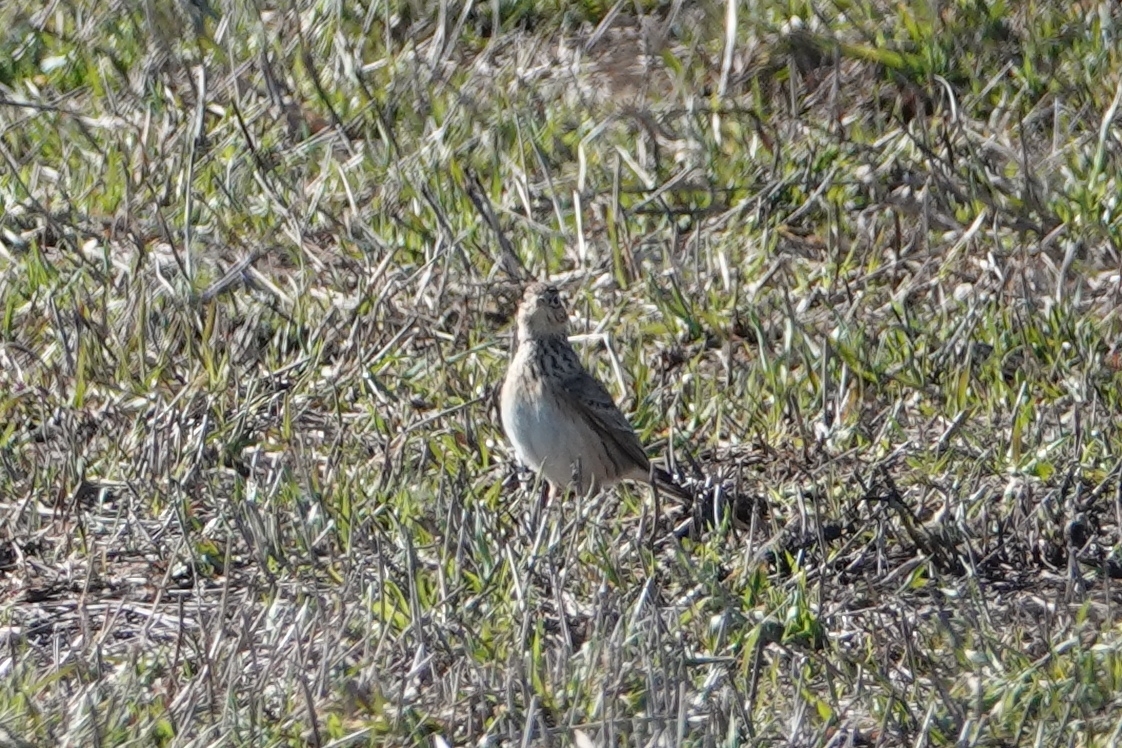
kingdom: Animalia
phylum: Chordata
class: Aves
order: Passeriformes
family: Alaudidae
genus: Alauda
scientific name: Alauda arvensis
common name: Eurasian skylark
